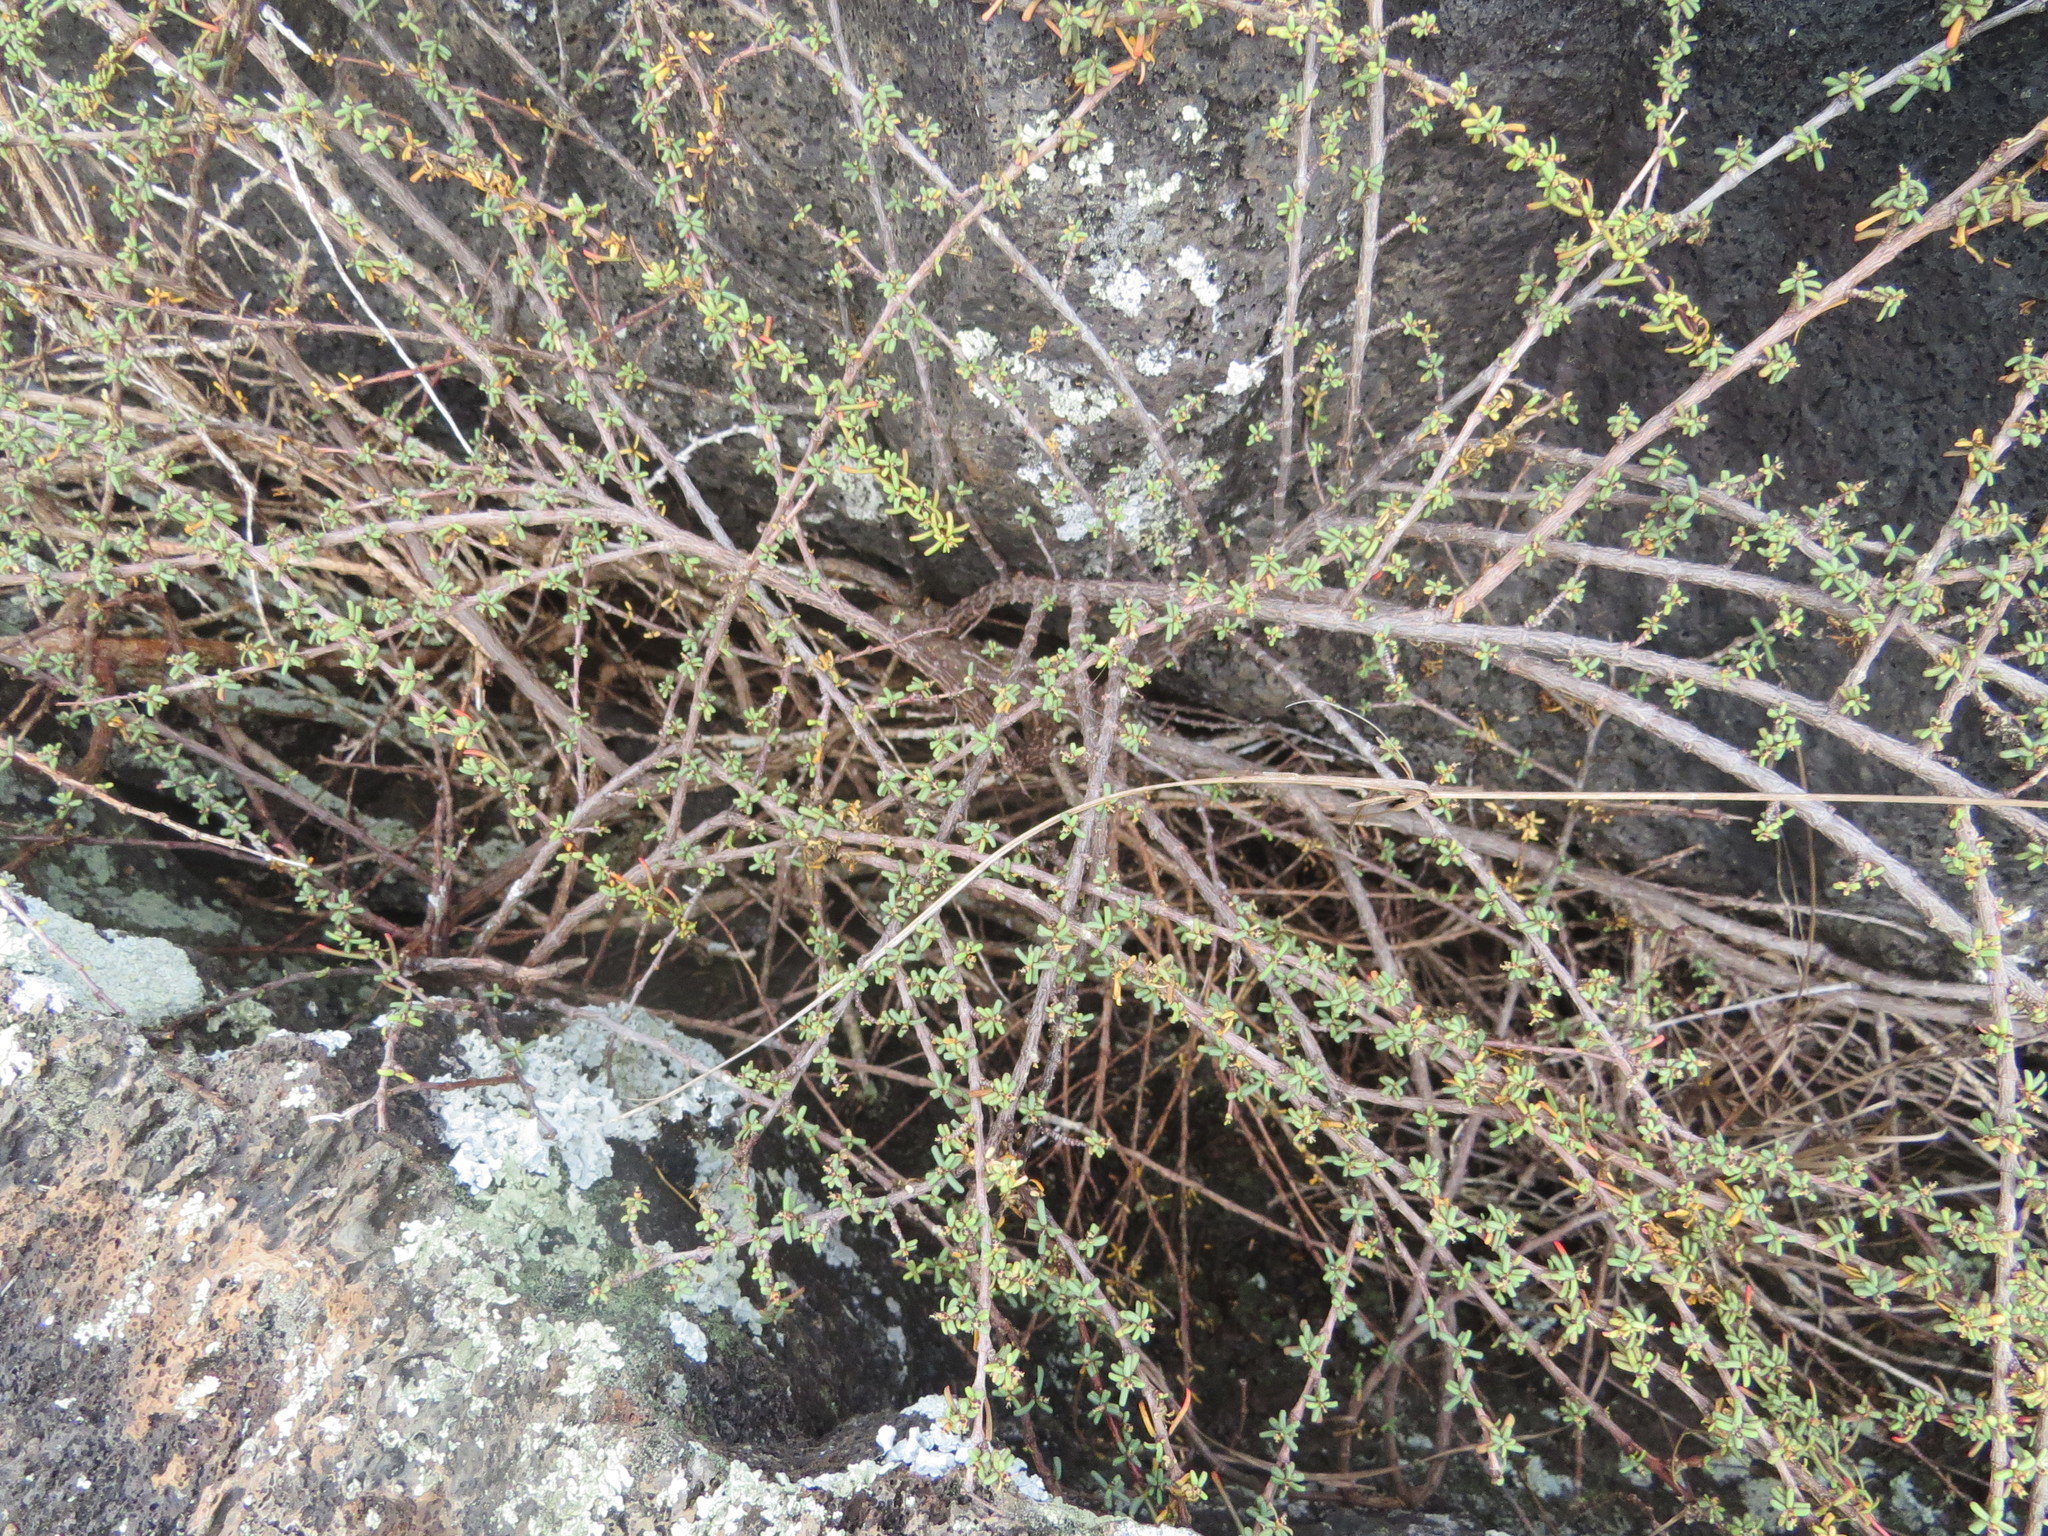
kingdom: Plantae
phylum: Tracheophyta
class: Magnoliopsida
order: Malpighiales
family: Euphorbiaceae
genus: Euphorbia
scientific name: Euphorbia viminea
